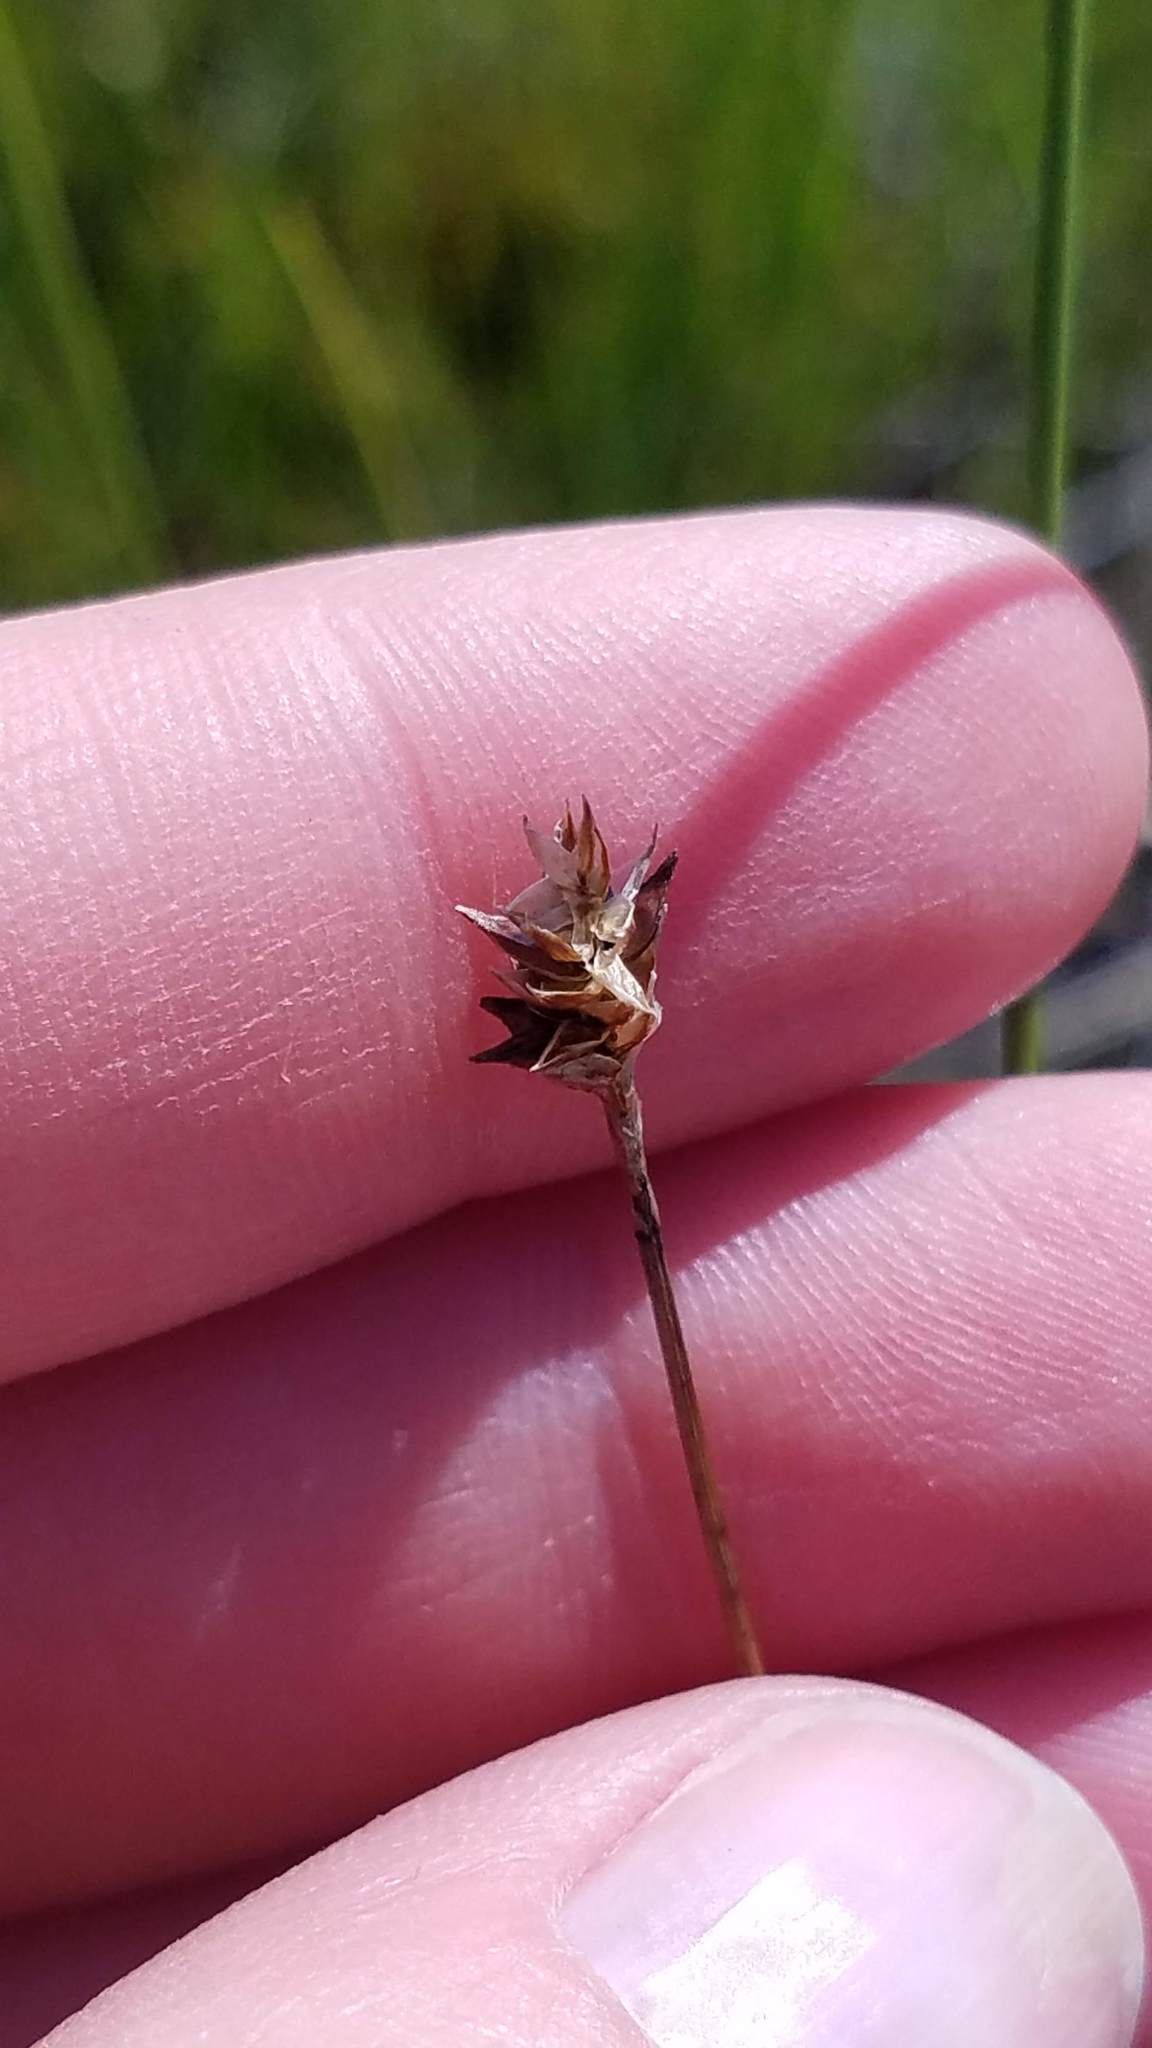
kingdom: Plantae
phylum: Tracheophyta
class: Liliopsida
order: Poales
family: Cyperaceae
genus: Carex
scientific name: Carex exilis
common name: Coastal sedge
